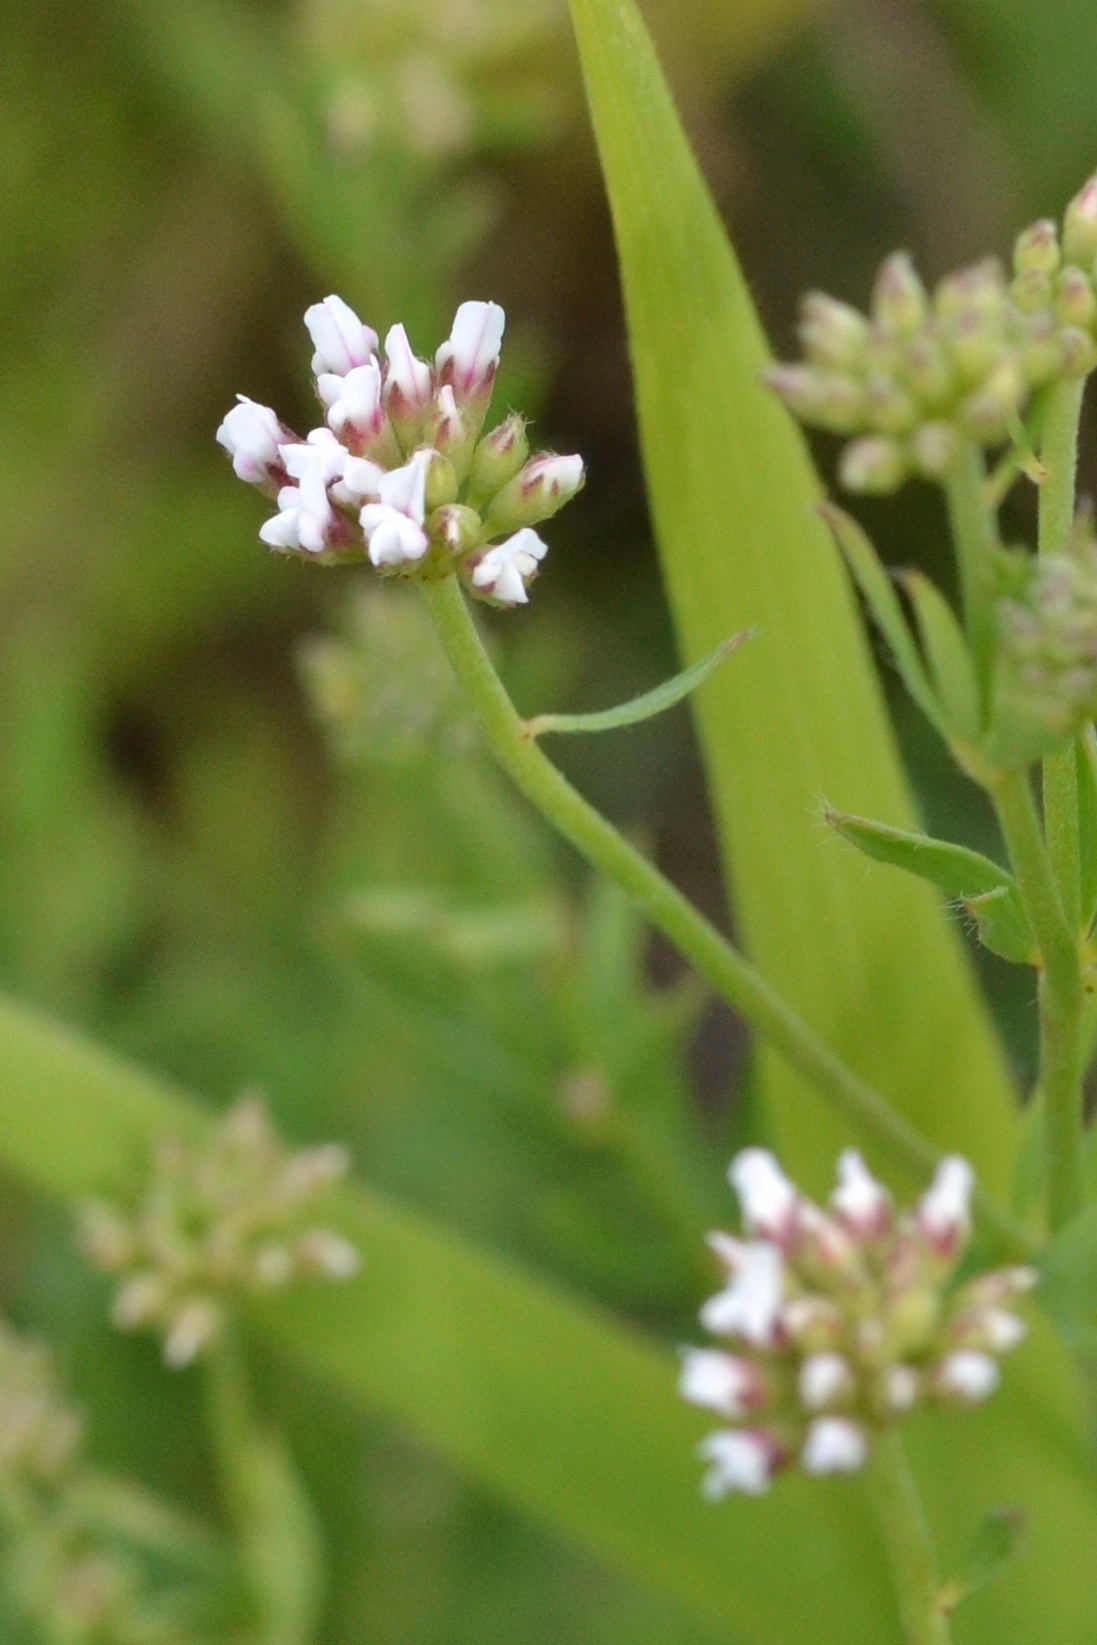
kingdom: Plantae
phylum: Tracheophyta
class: Magnoliopsida
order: Fabales
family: Fabaceae
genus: Lotus
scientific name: Lotus herbaceus
